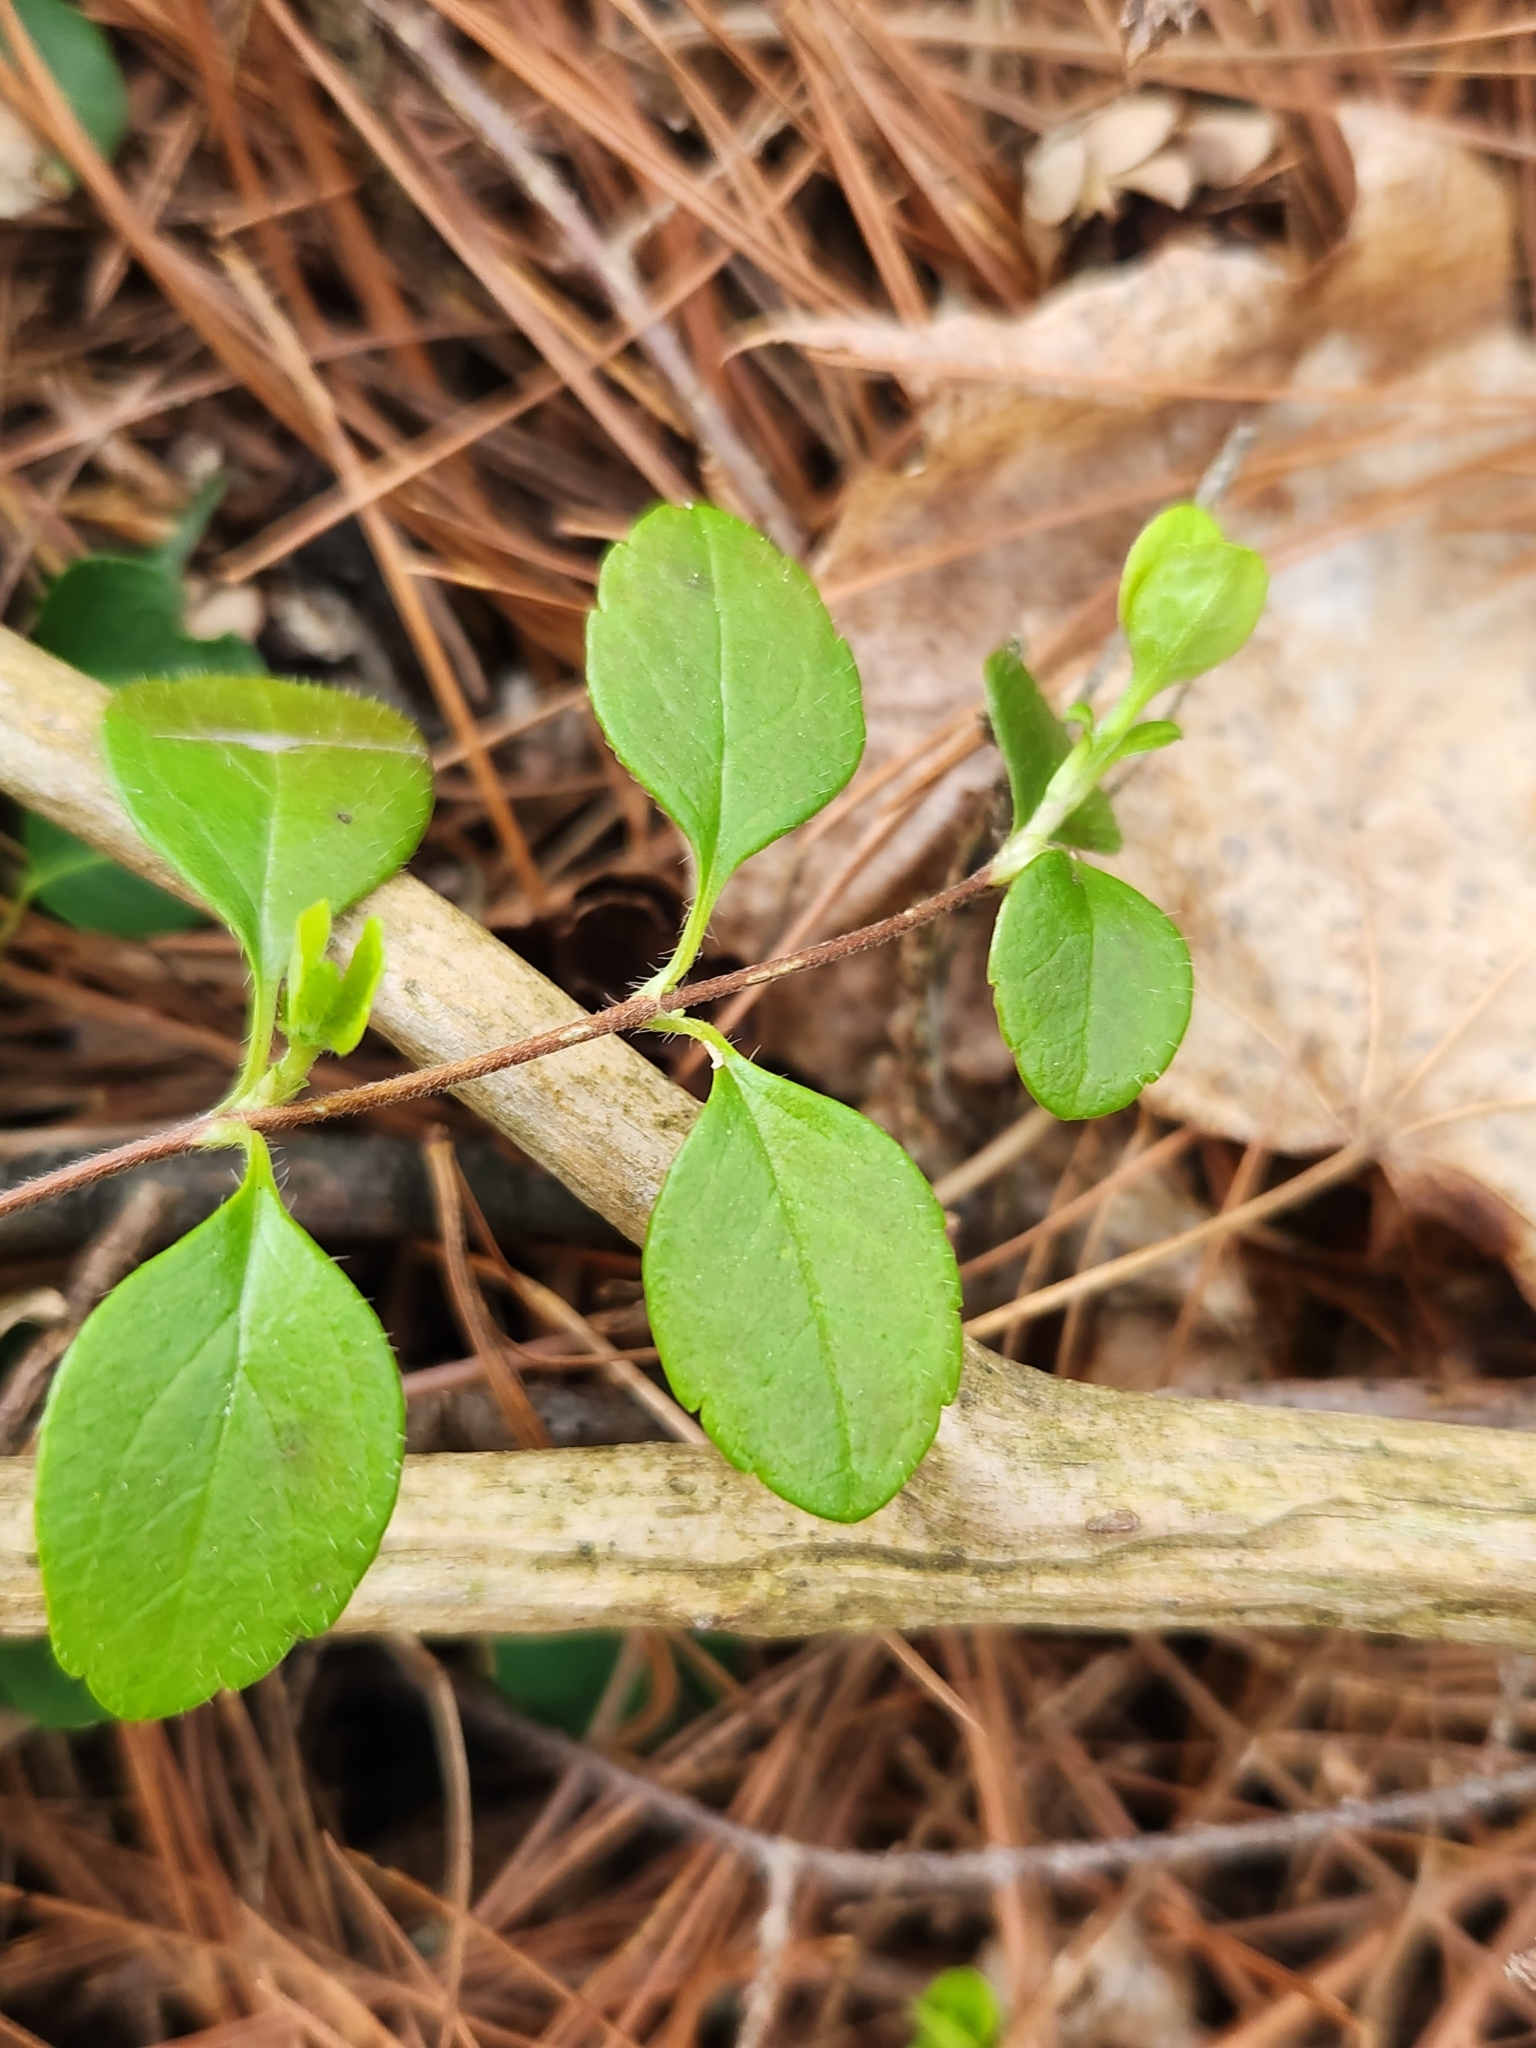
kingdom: Plantae
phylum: Tracheophyta
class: Magnoliopsida
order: Dipsacales
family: Caprifoliaceae
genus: Linnaea
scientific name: Linnaea borealis
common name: Twinflower
